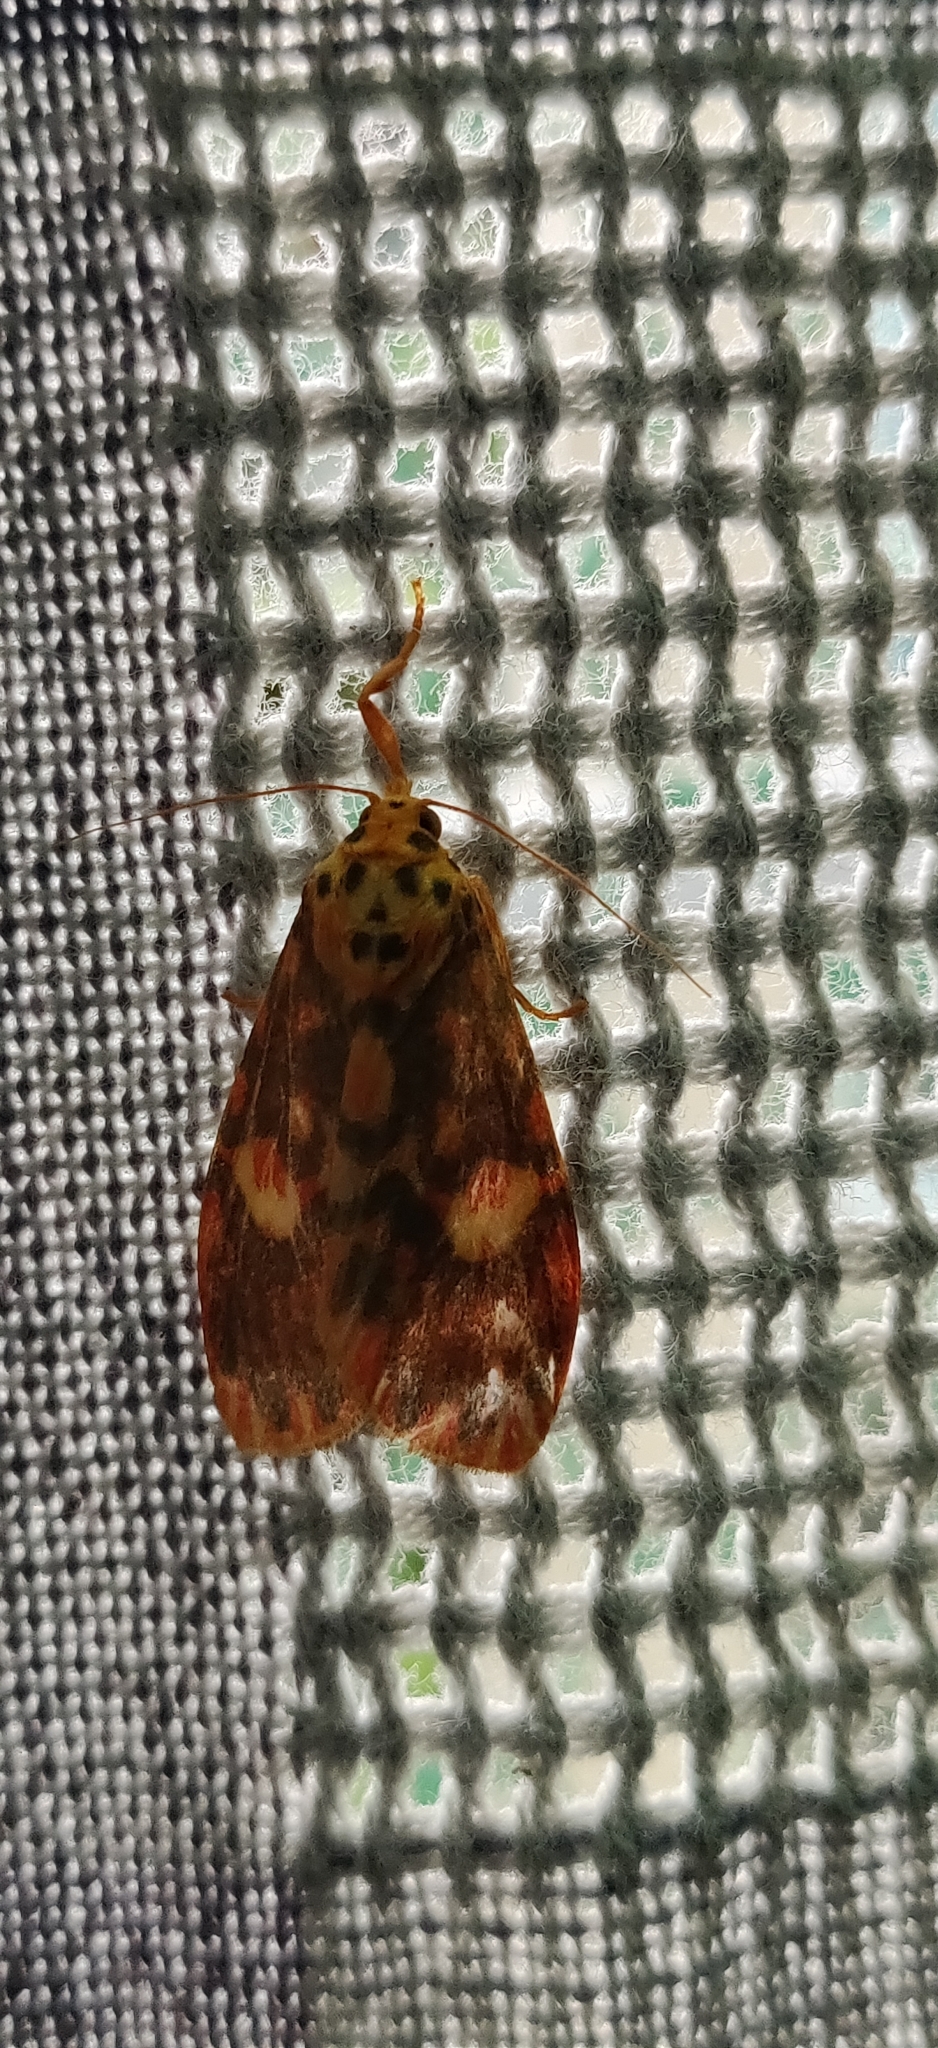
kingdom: Animalia
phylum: Arthropoda
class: Insecta
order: Lepidoptera
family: Erebidae
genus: Ammatho
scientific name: Ammatho cuneonotatus
